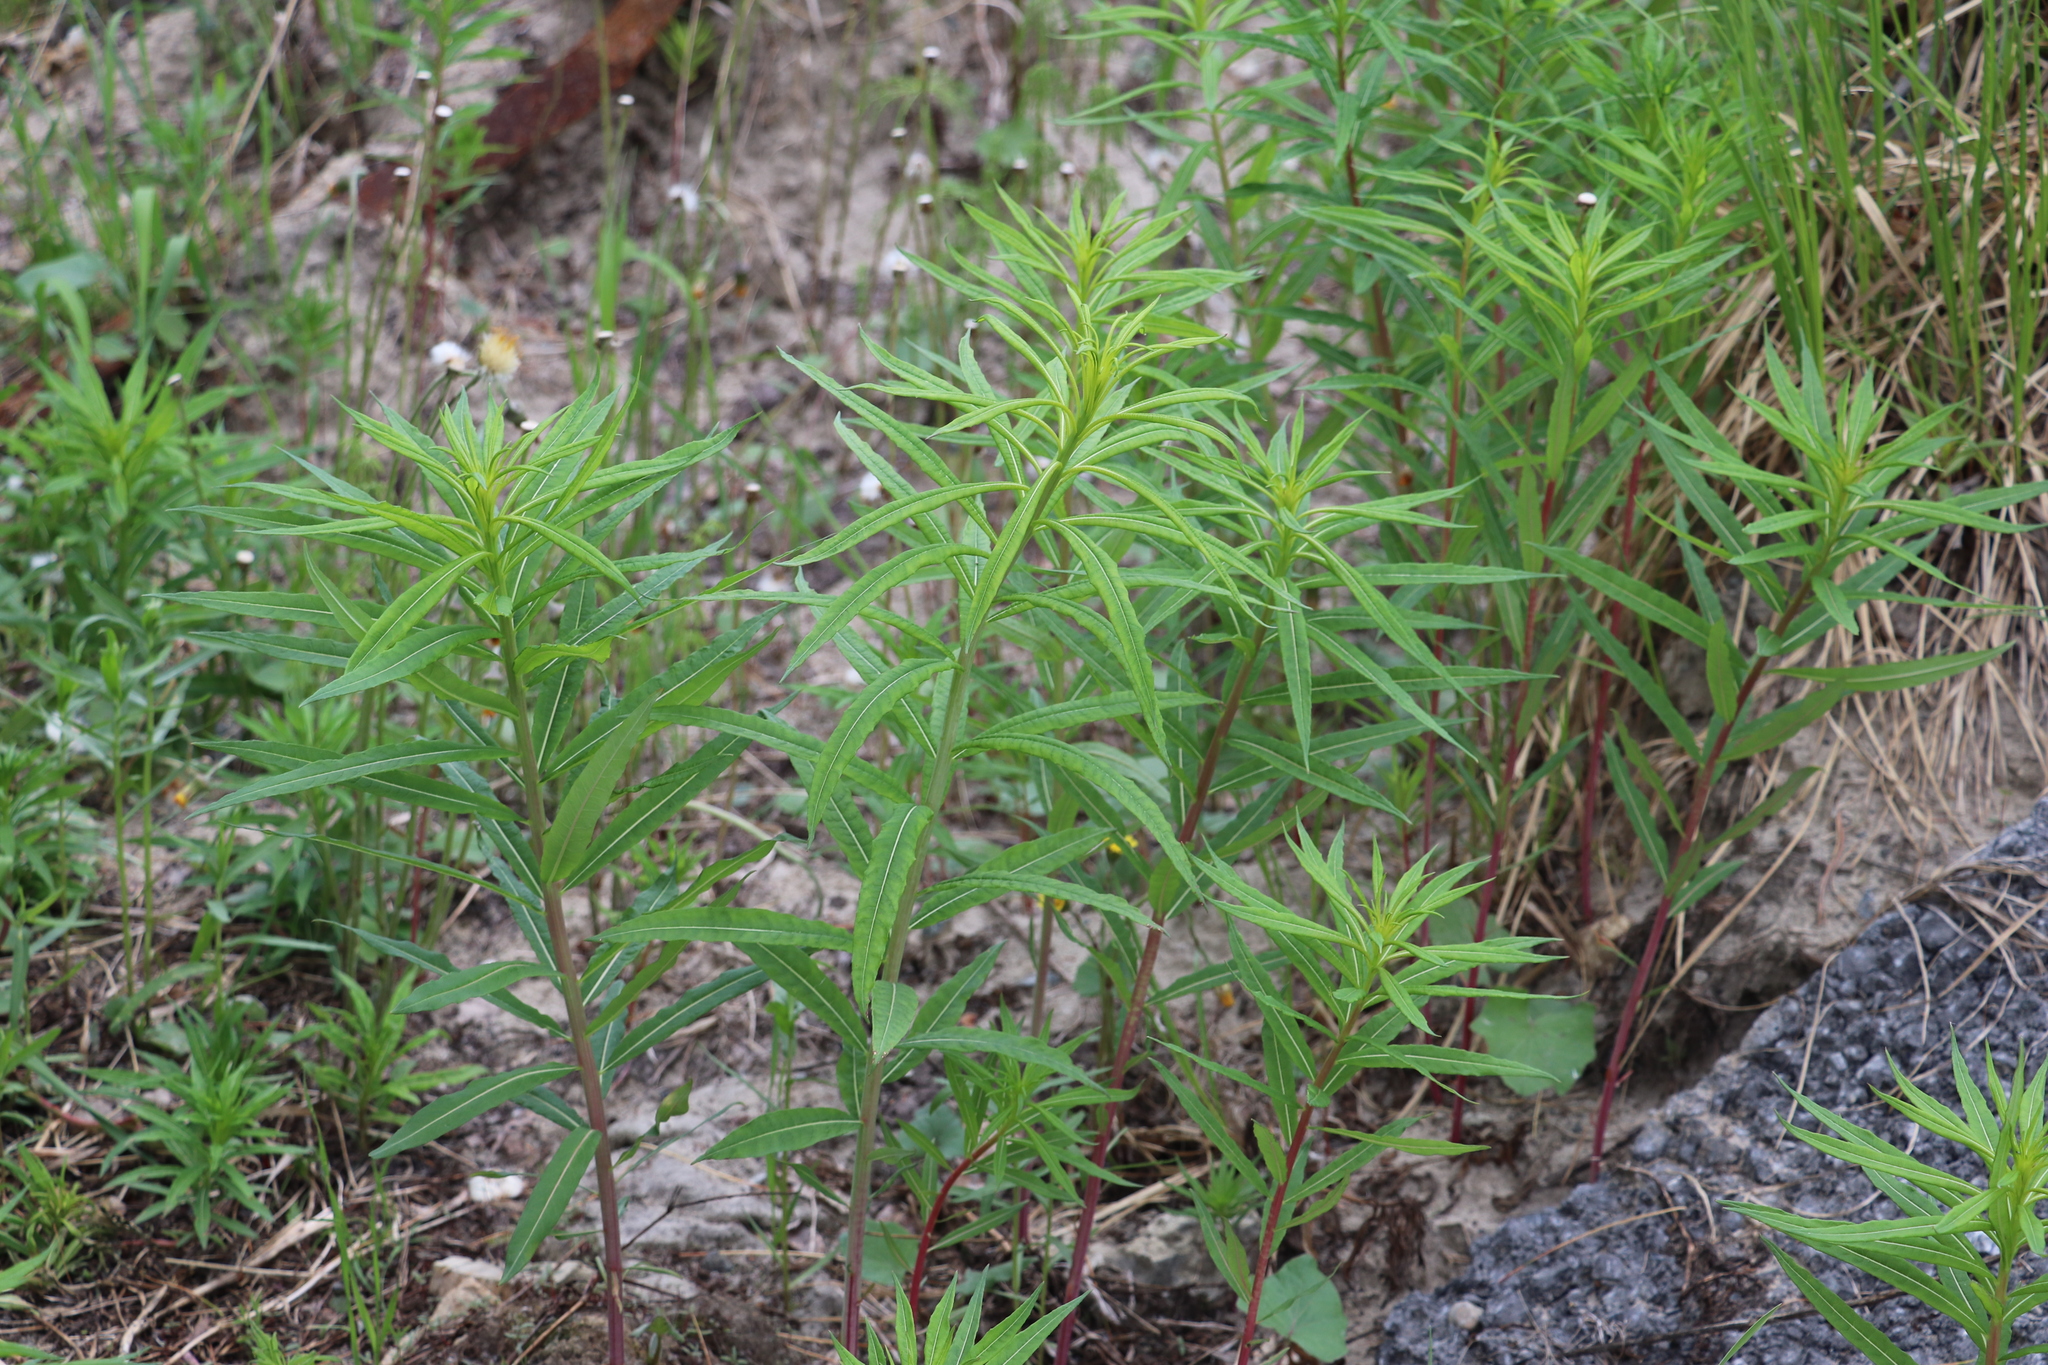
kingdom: Plantae
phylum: Tracheophyta
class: Magnoliopsida
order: Myrtales
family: Onagraceae
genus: Chamaenerion
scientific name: Chamaenerion angustifolium
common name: Fireweed
